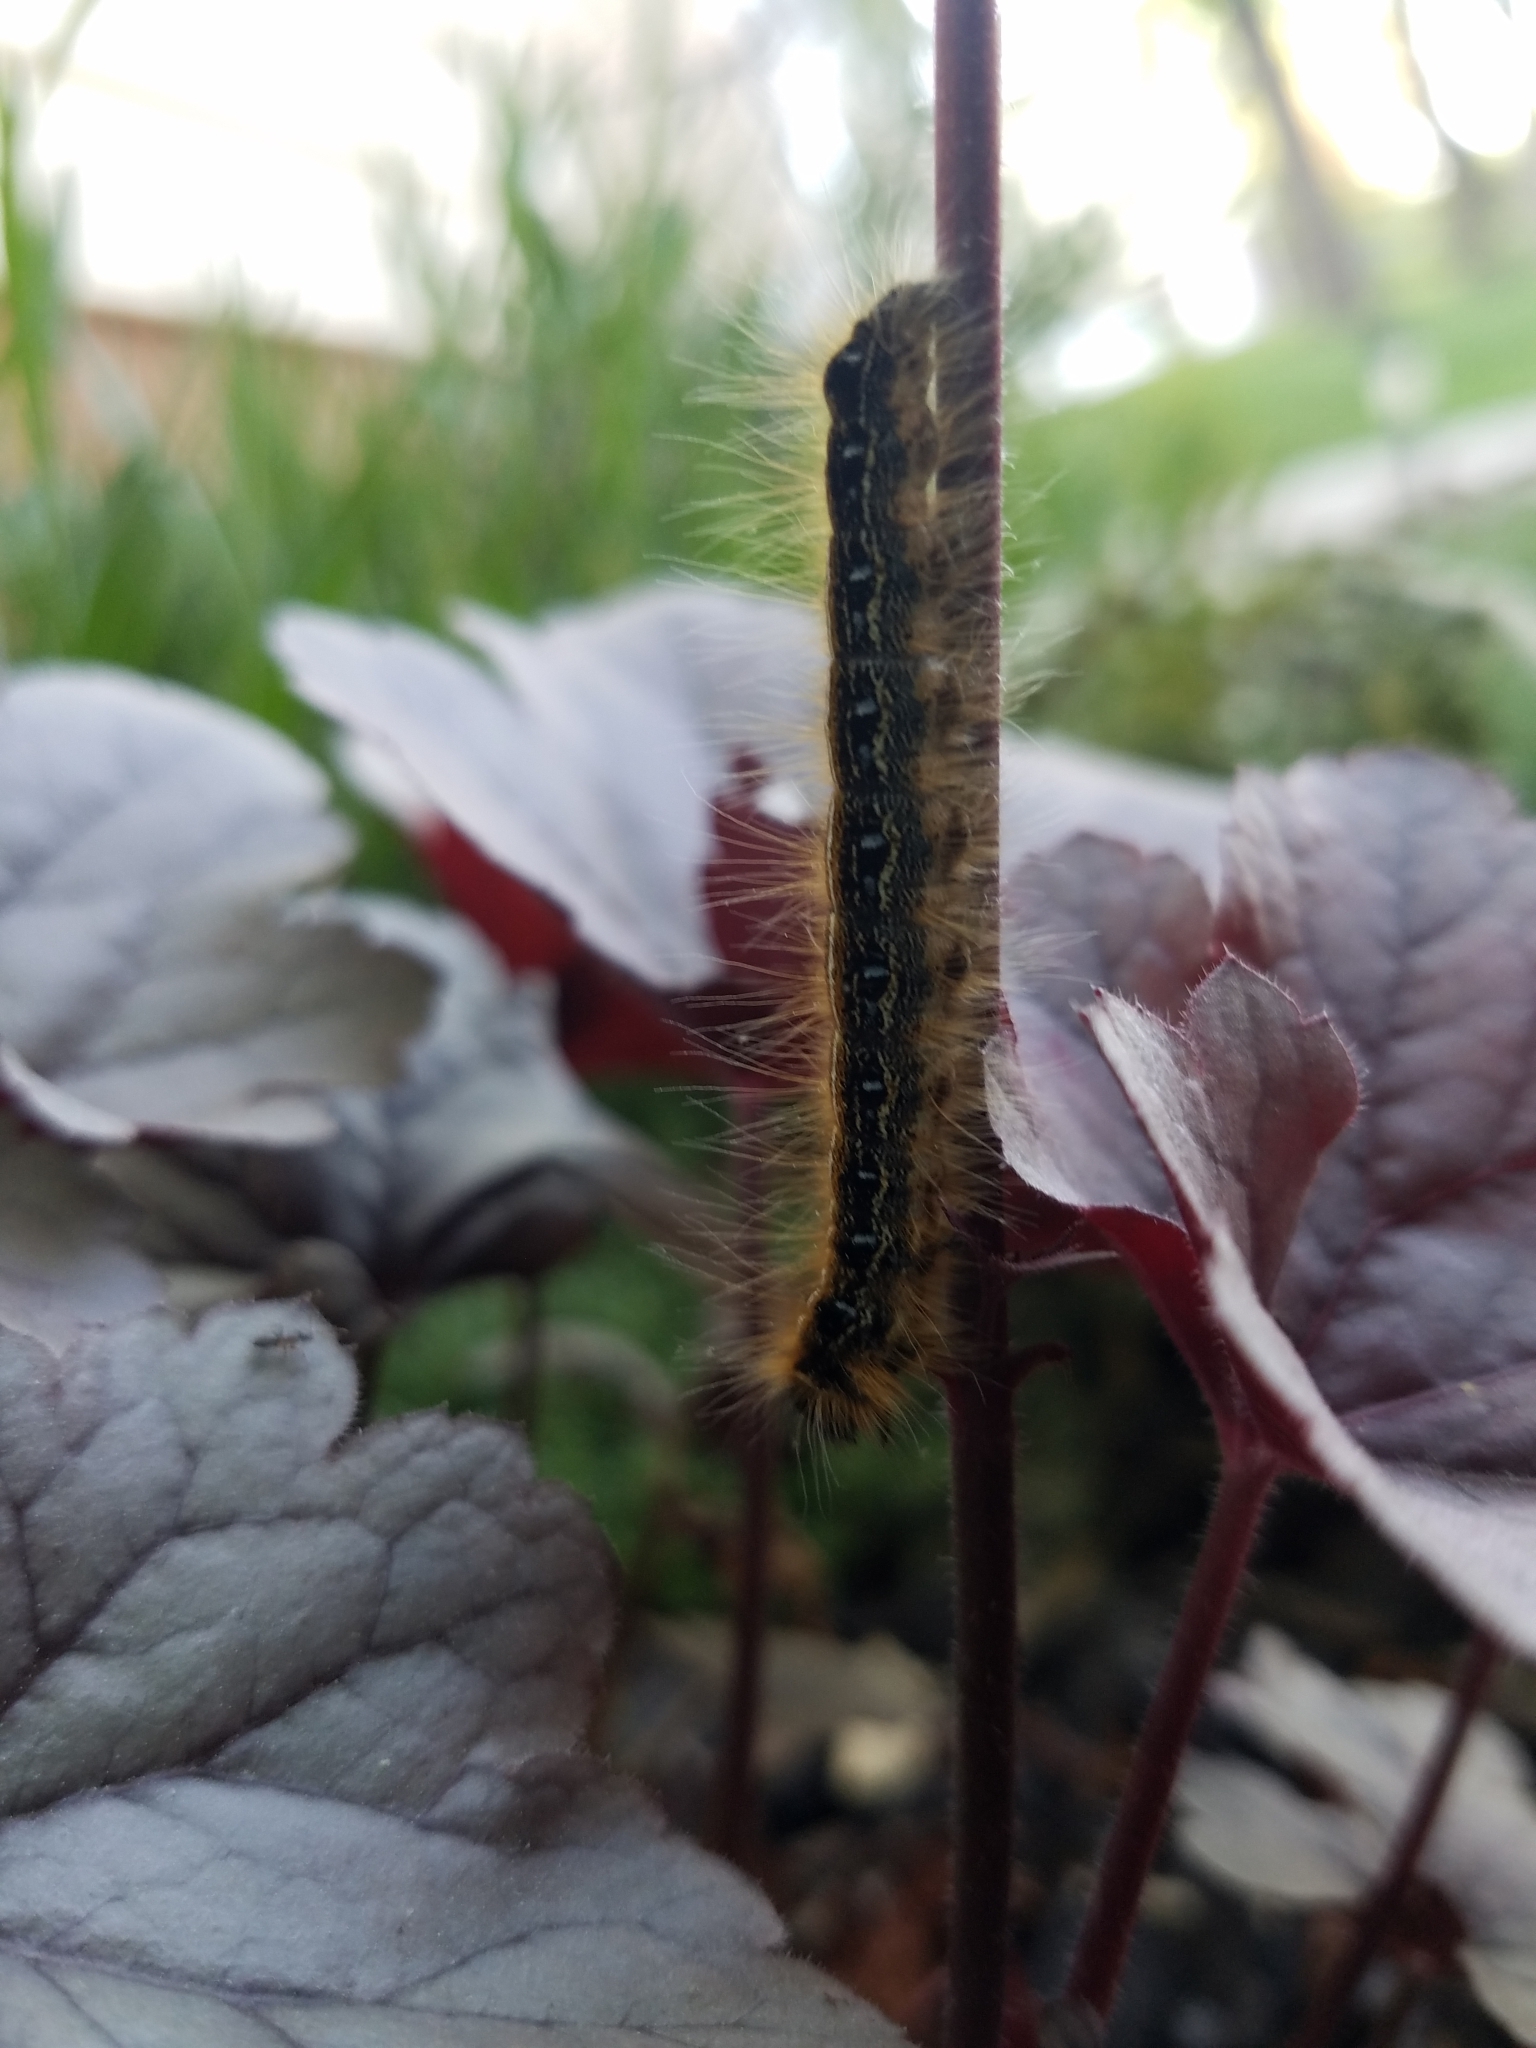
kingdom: Animalia
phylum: Arthropoda
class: Insecta
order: Lepidoptera
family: Lasiocampidae
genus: Malacosoma
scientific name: Malacosoma americana
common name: Eastern tent caterpillar moth
